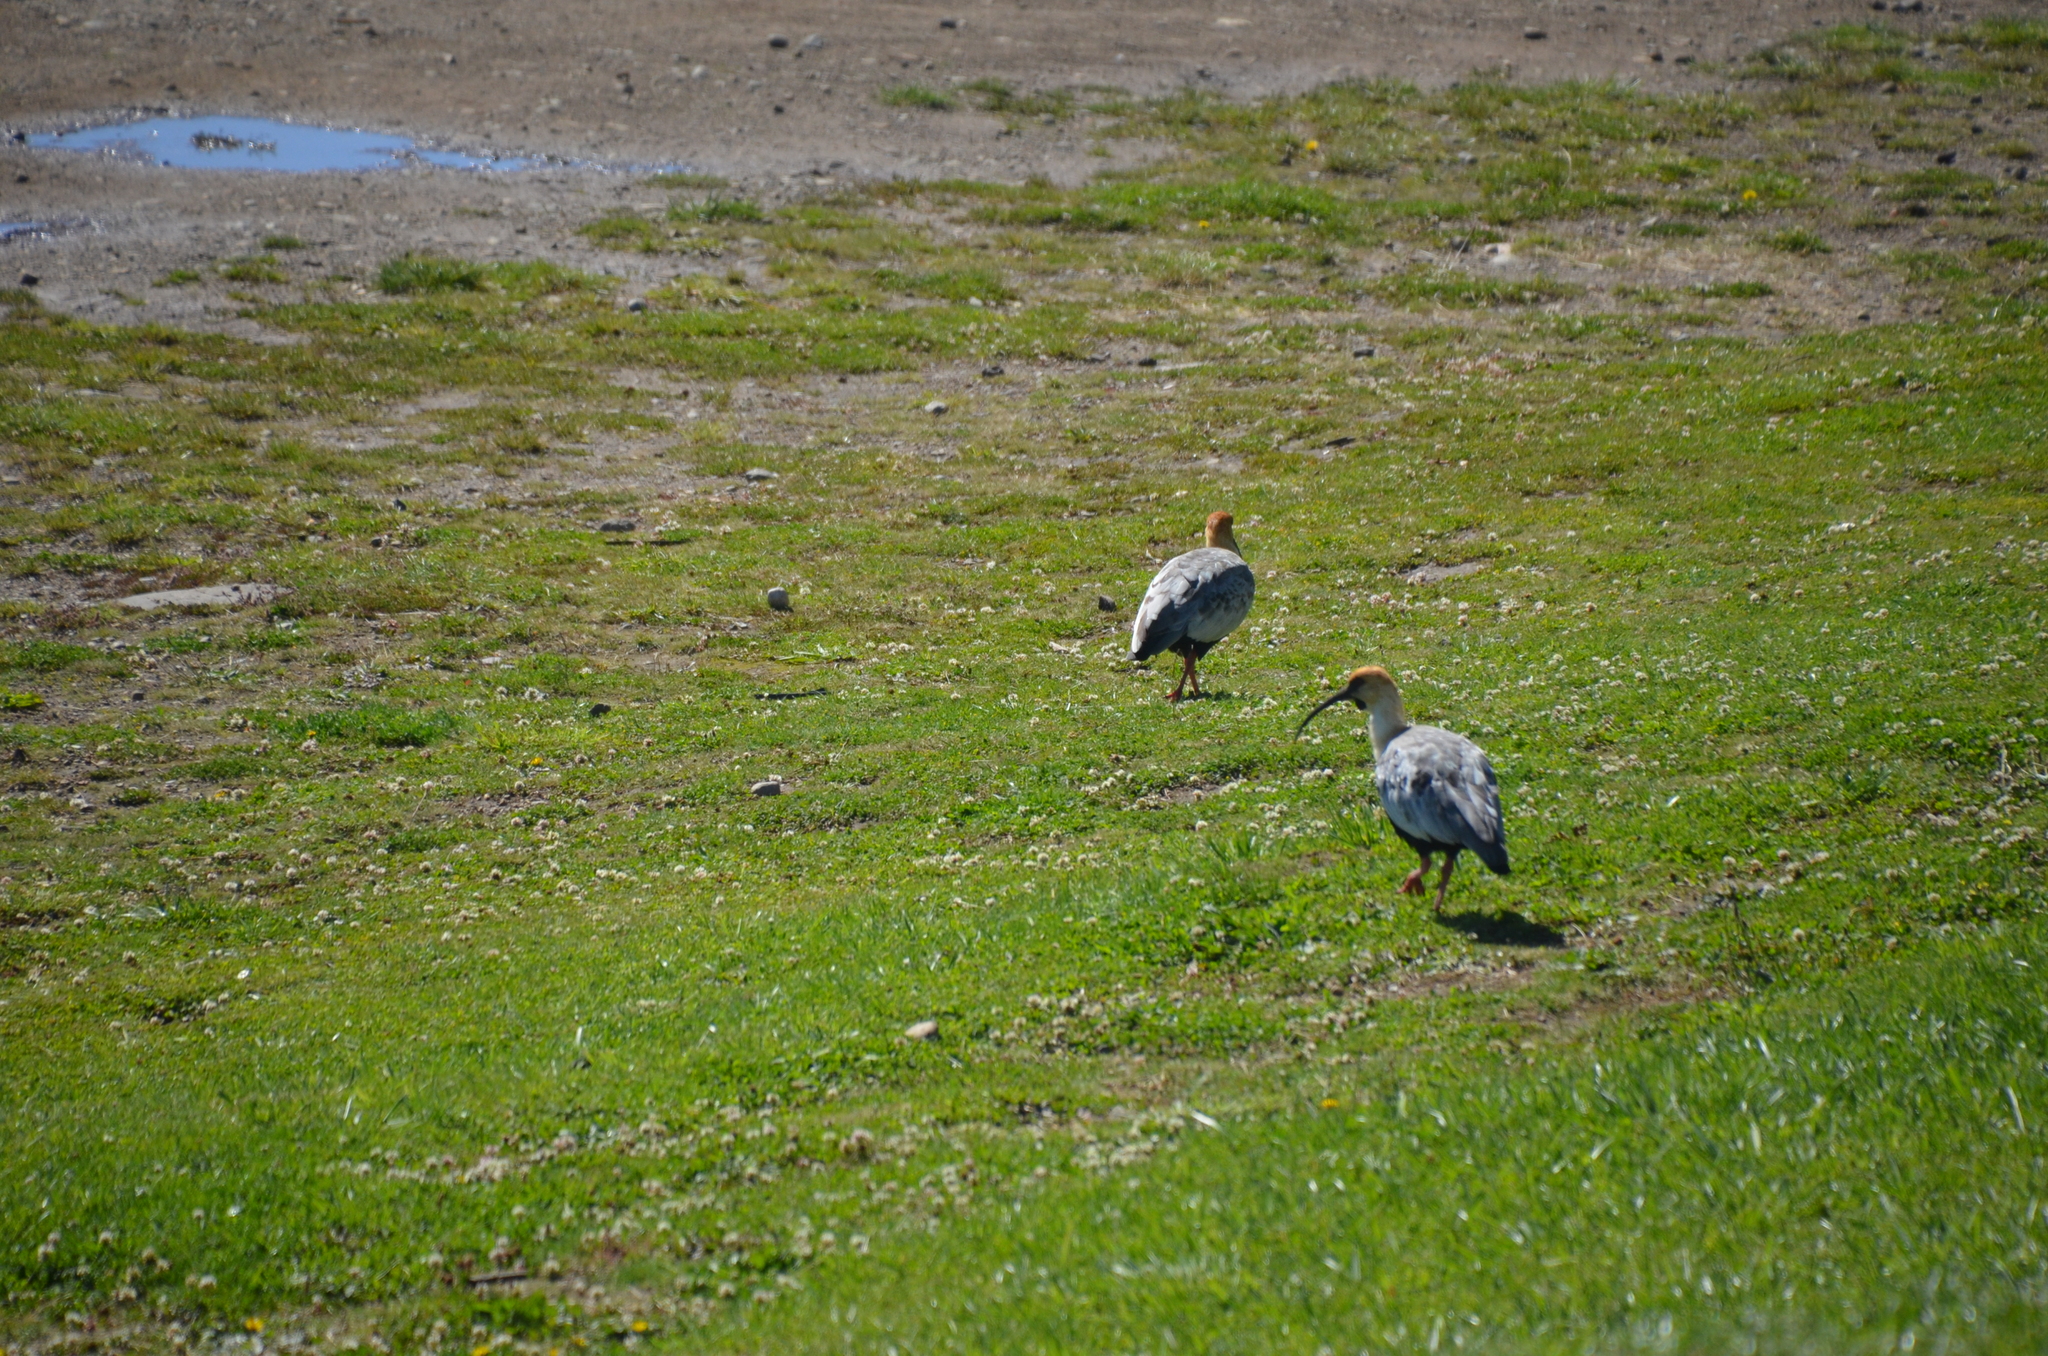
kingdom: Animalia
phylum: Chordata
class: Aves
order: Pelecaniformes
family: Threskiornithidae
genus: Theristicus
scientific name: Theristicus melanopis
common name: Black-faced ibis
